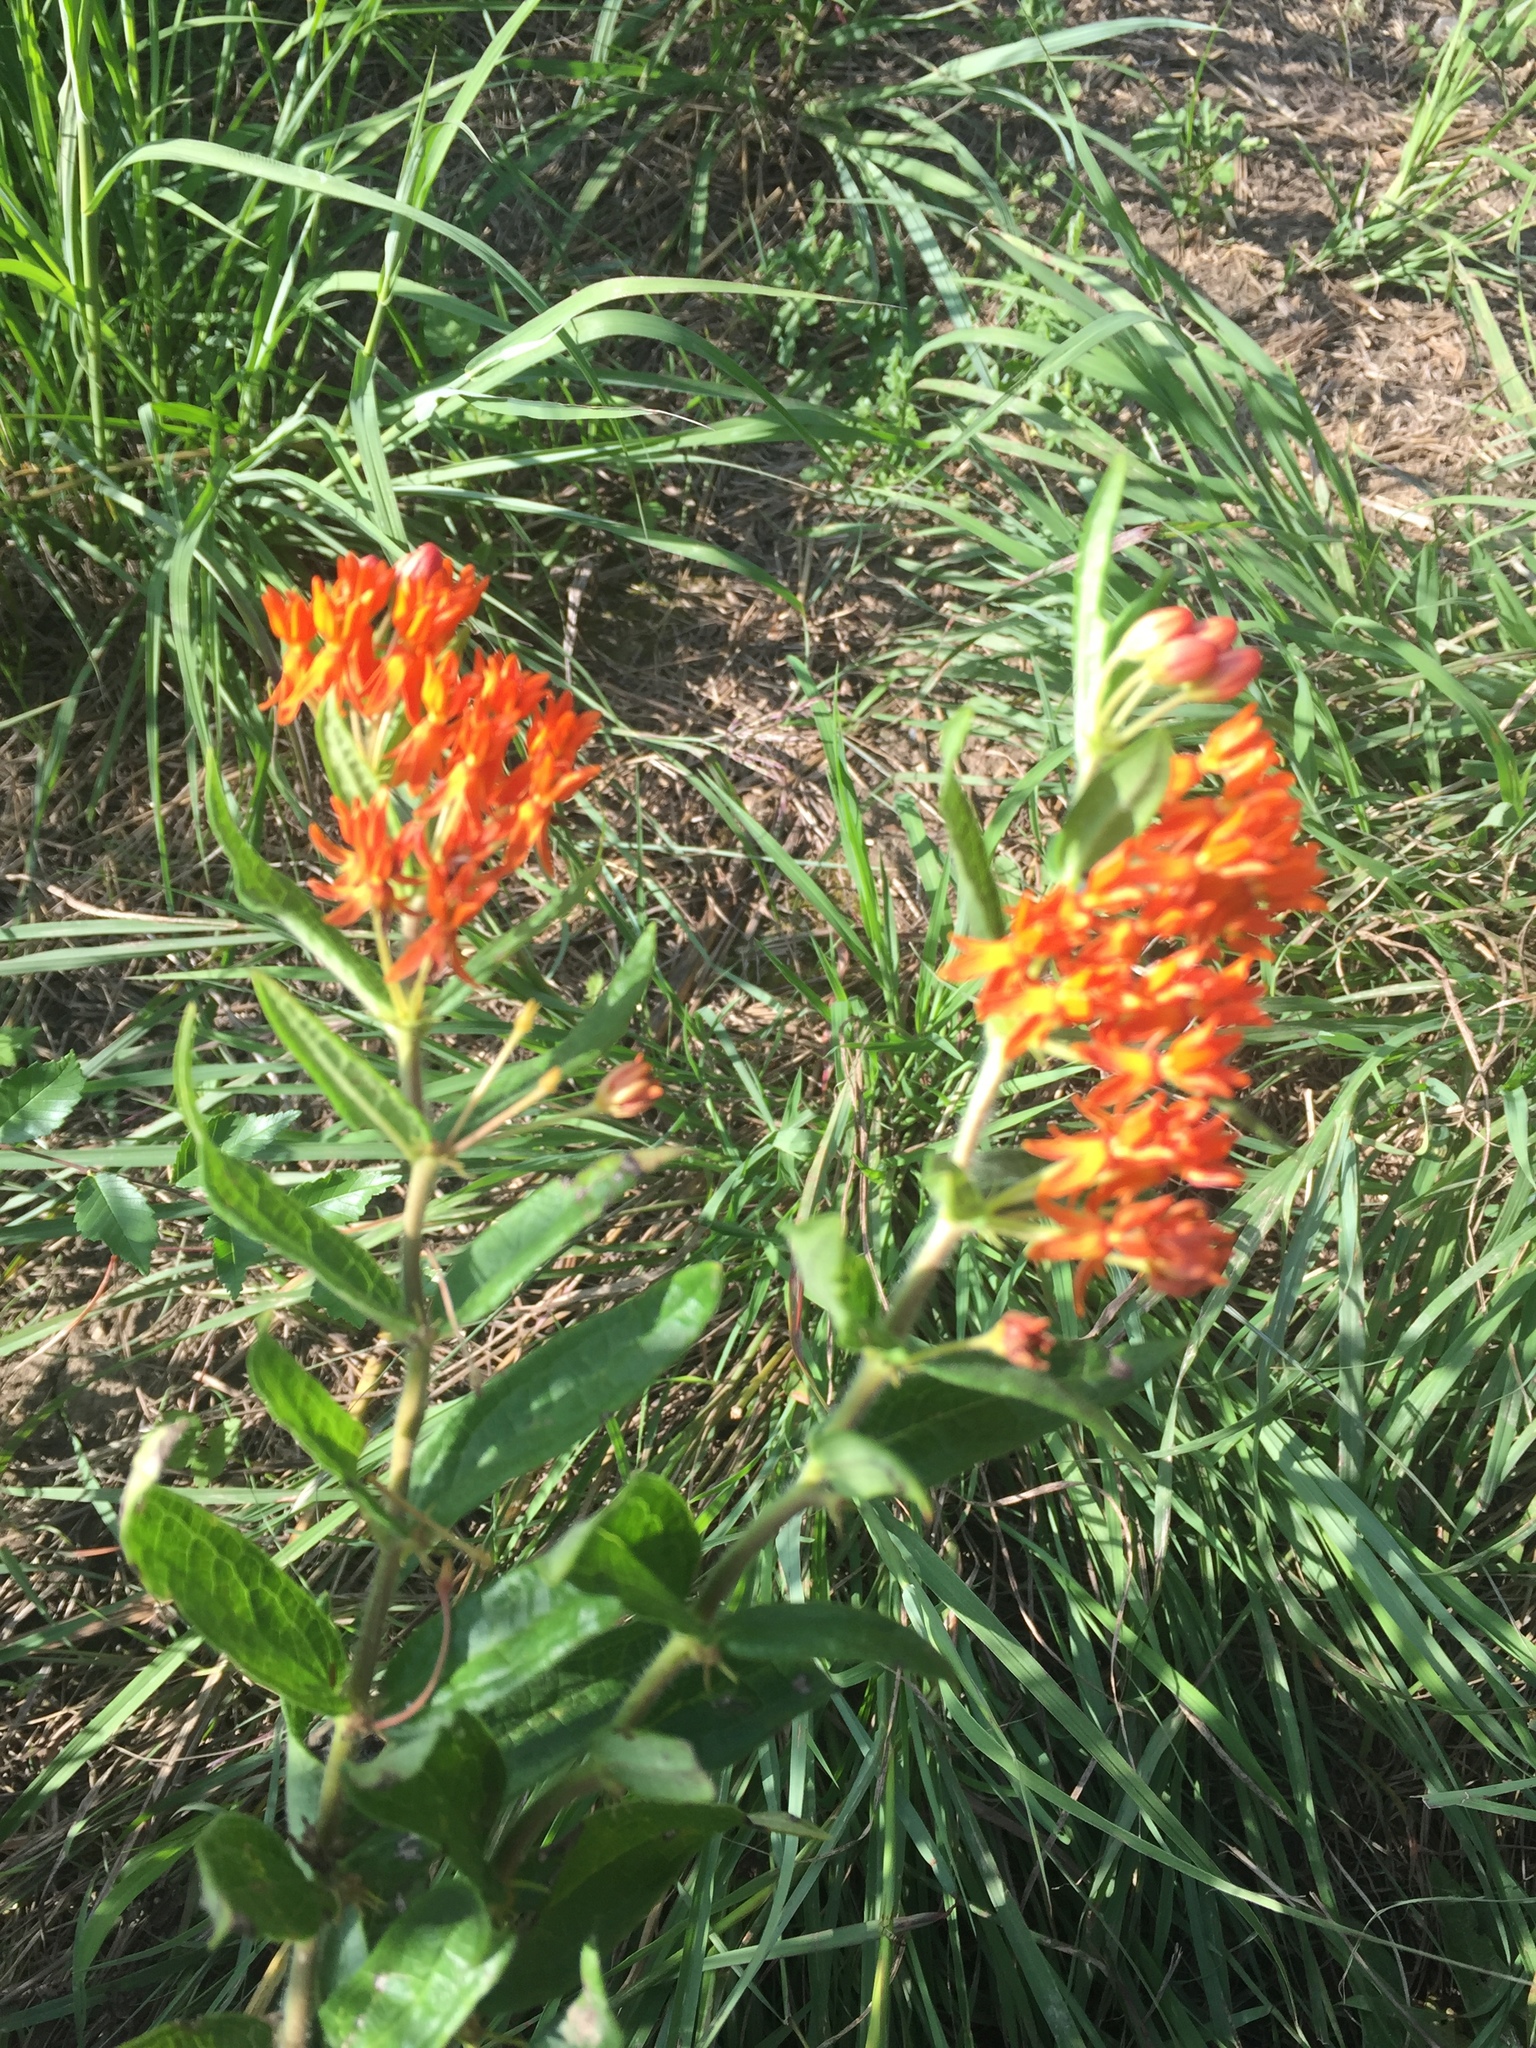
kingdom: Plantae
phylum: Tracheophyta
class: Magnoliopsida
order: Gentianales
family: Apocynaceae
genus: Asclepias
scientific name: Asclepias tuberosa
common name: Butterfly milkweed
